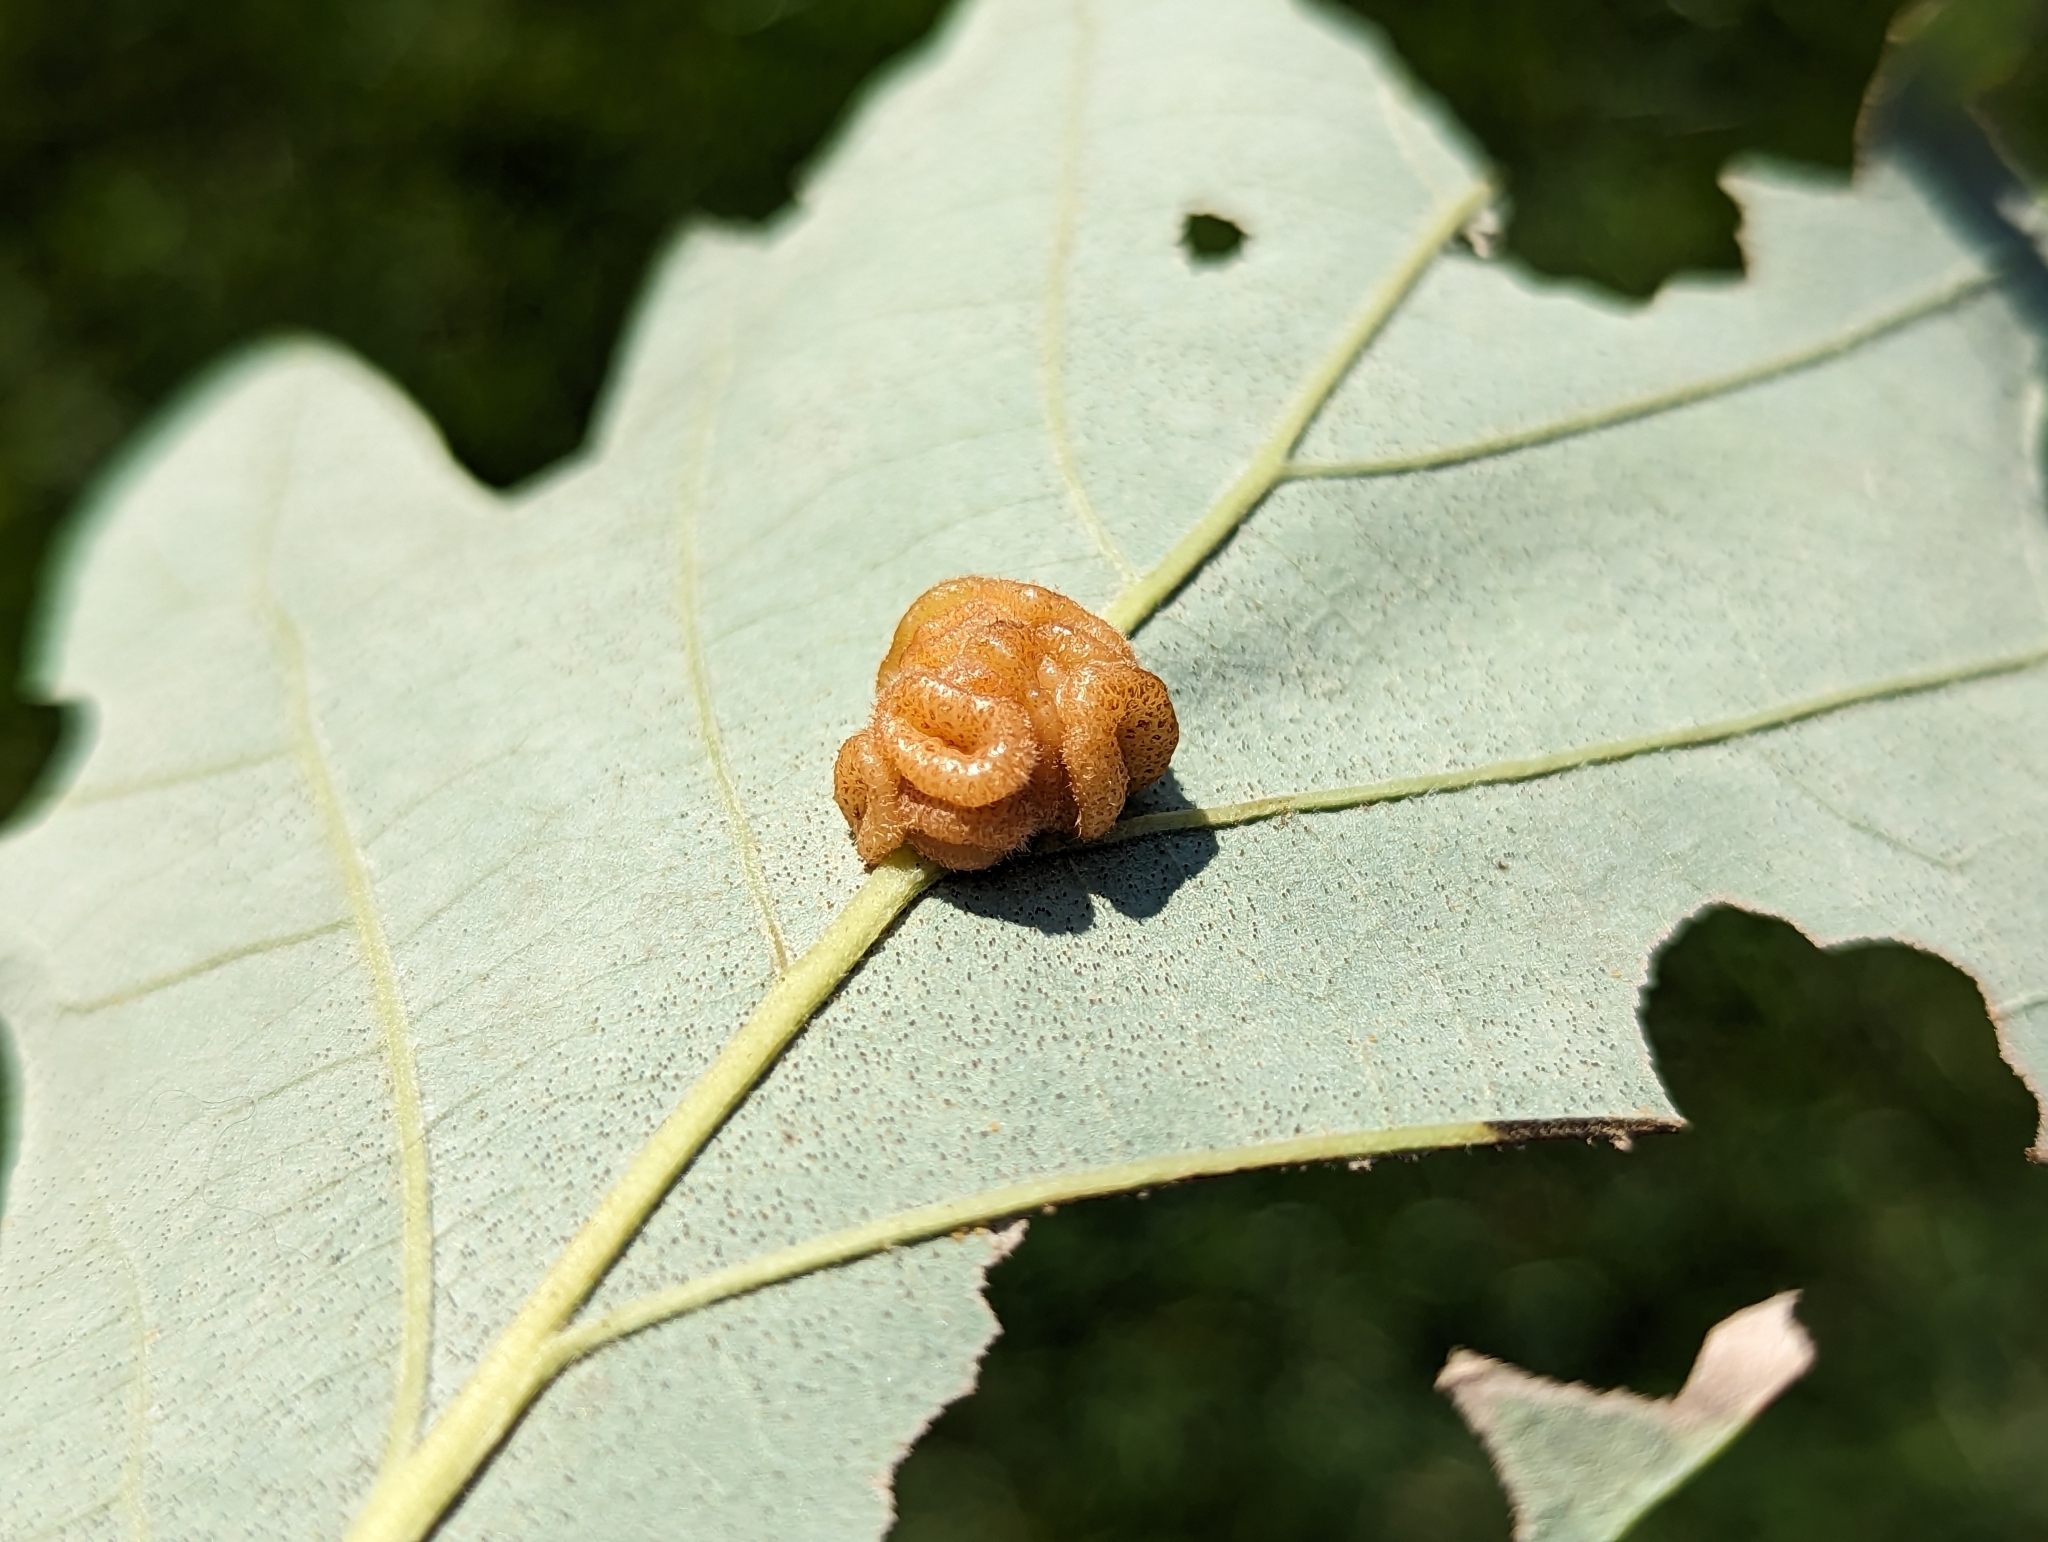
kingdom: Animalia
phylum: Arthropoda
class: Insecta
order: Hymenoptera
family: Cynipidae
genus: Andricus
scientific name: Andricus
